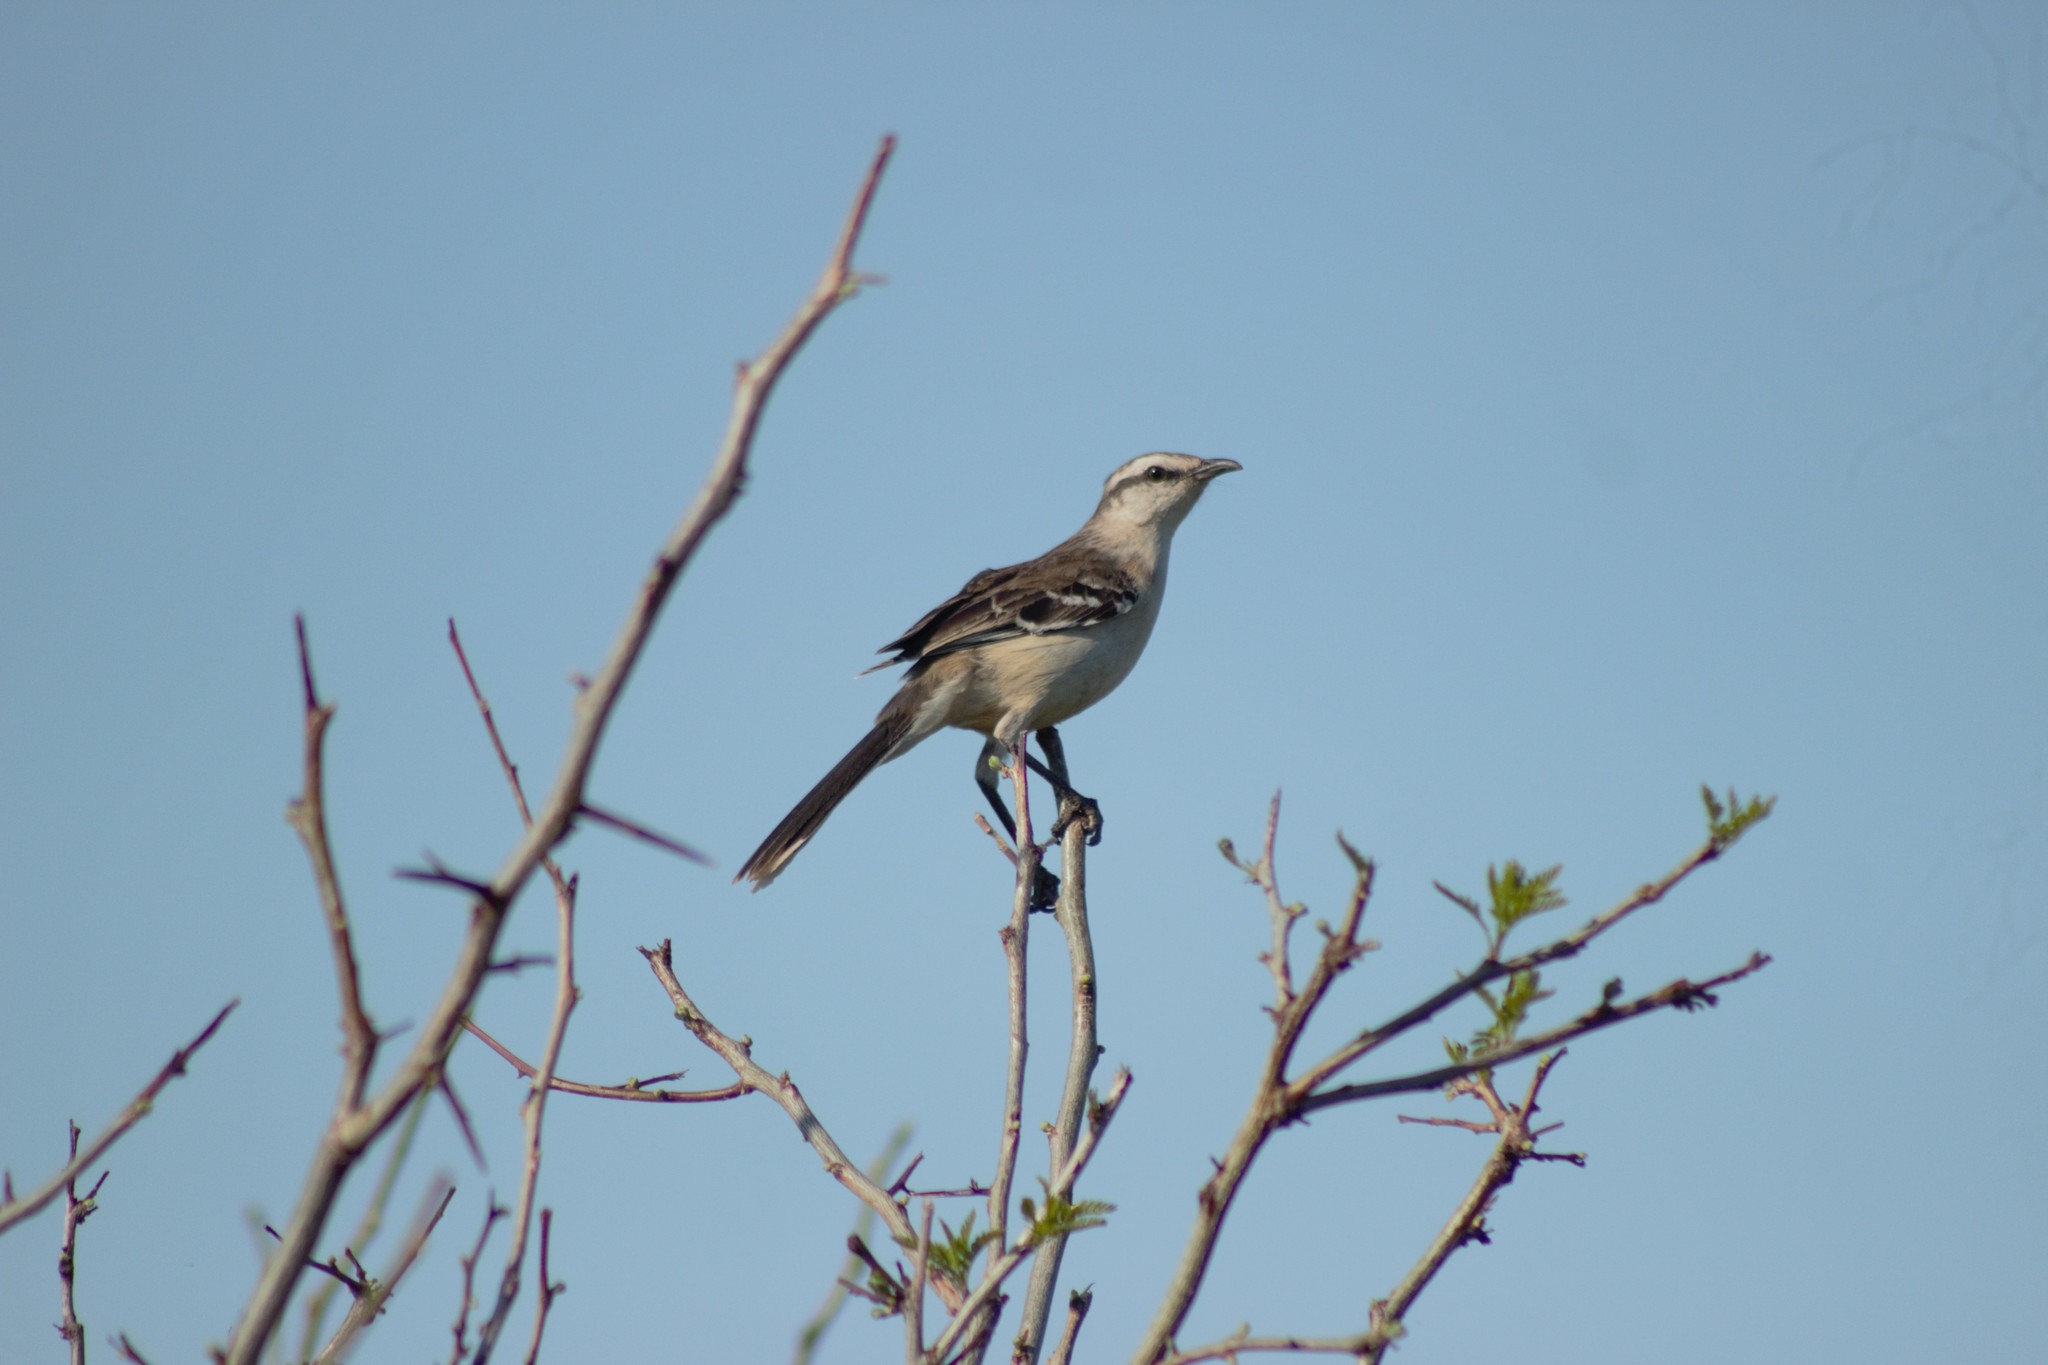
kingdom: Animalia
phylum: Chordata
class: Aves
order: Passeriformes
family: Mimidae
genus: Mimus
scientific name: Mimus saturninus
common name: Chalk-browed mockingbird
